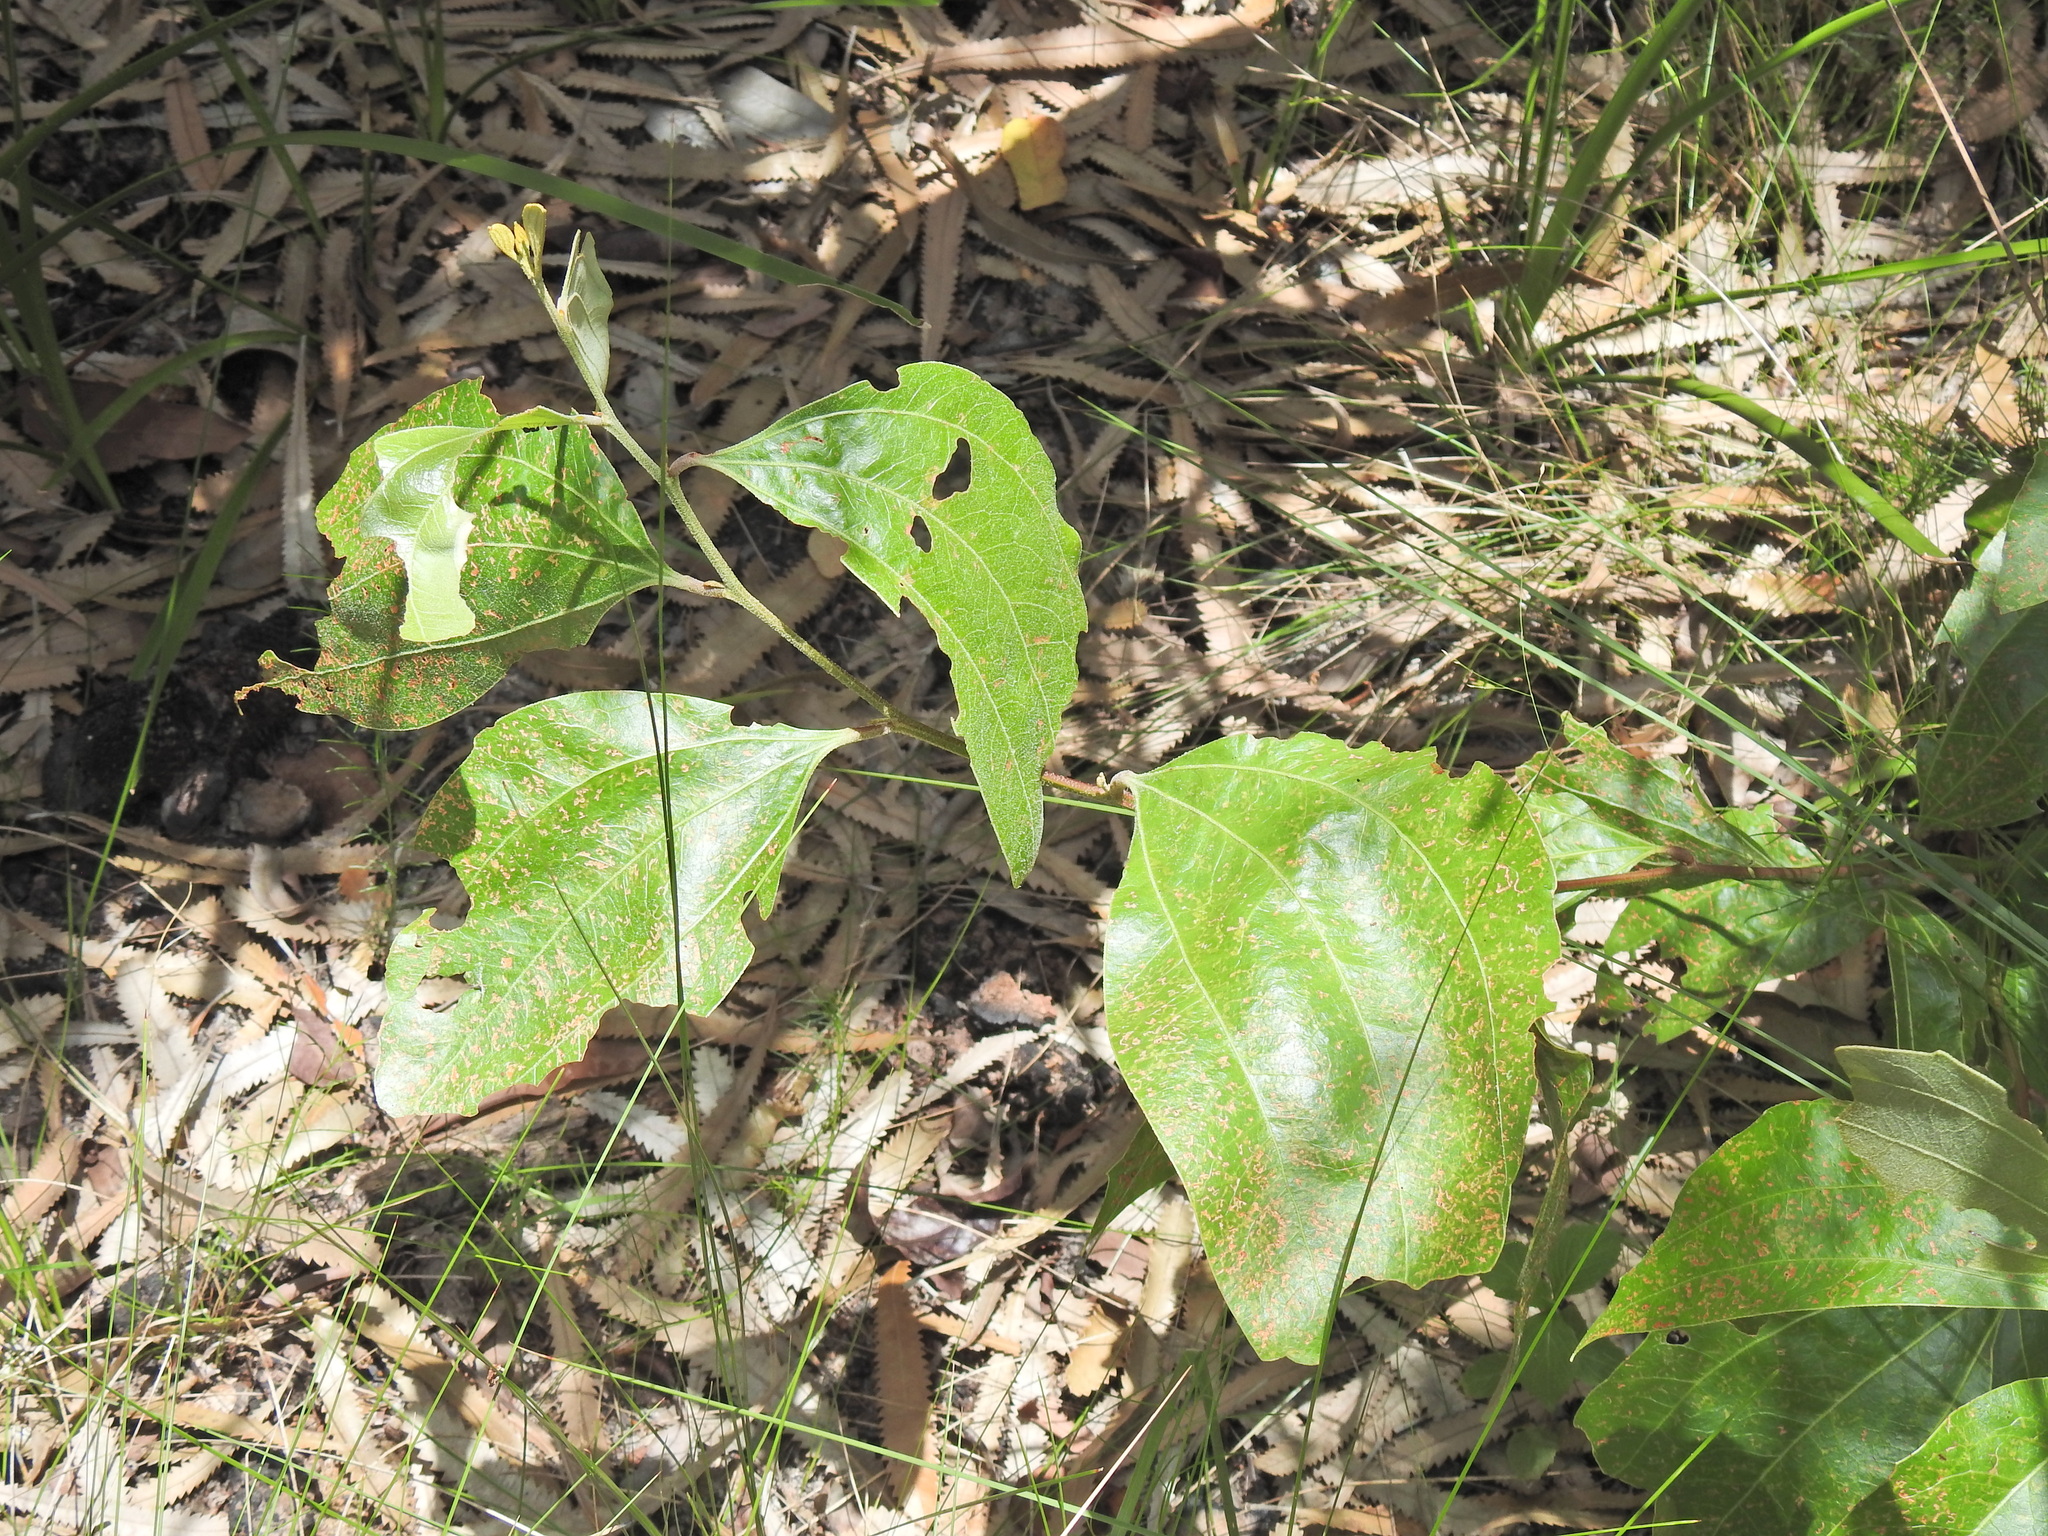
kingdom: Plantae
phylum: Tracheophyta
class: Magnoliopsida
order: Fabales
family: Fabaceae
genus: Acacia
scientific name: Acacia flavescens
